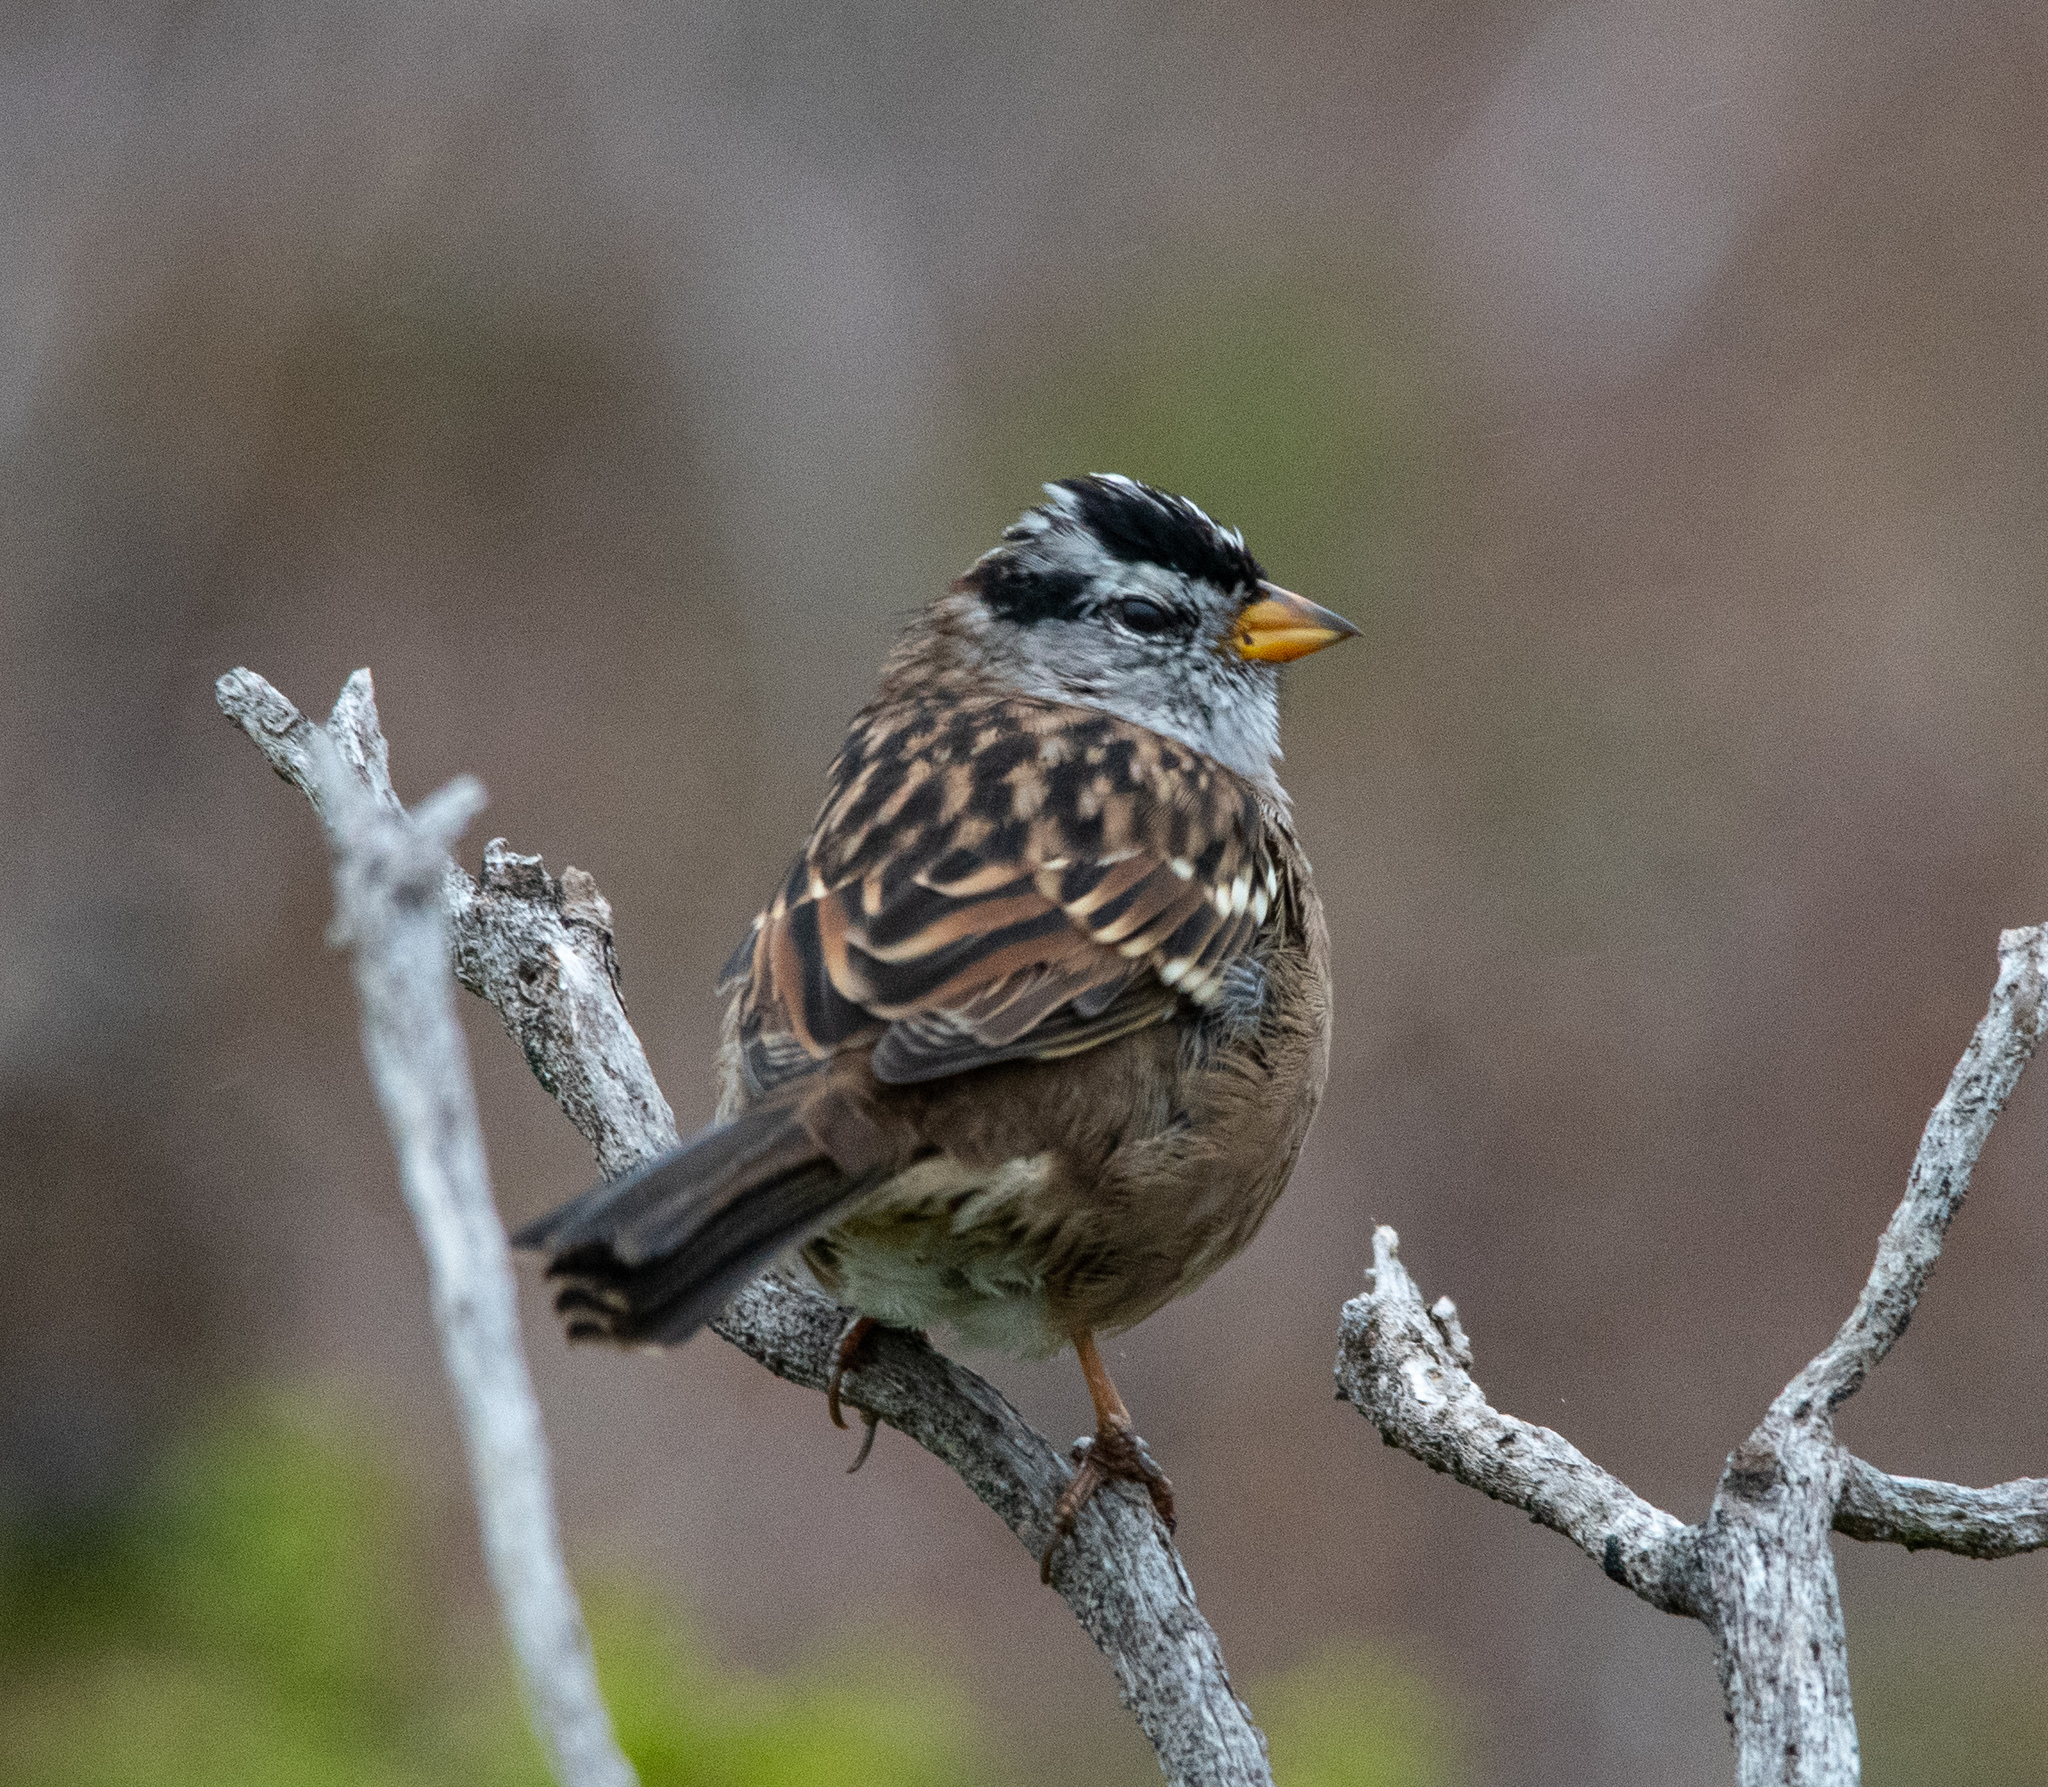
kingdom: Animalia
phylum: Chordata
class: Aves
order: Passeriformes
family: Passerellidae
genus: Zonotrichia
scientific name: Zonotrichia leucophrys
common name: White-crowned sparrow
